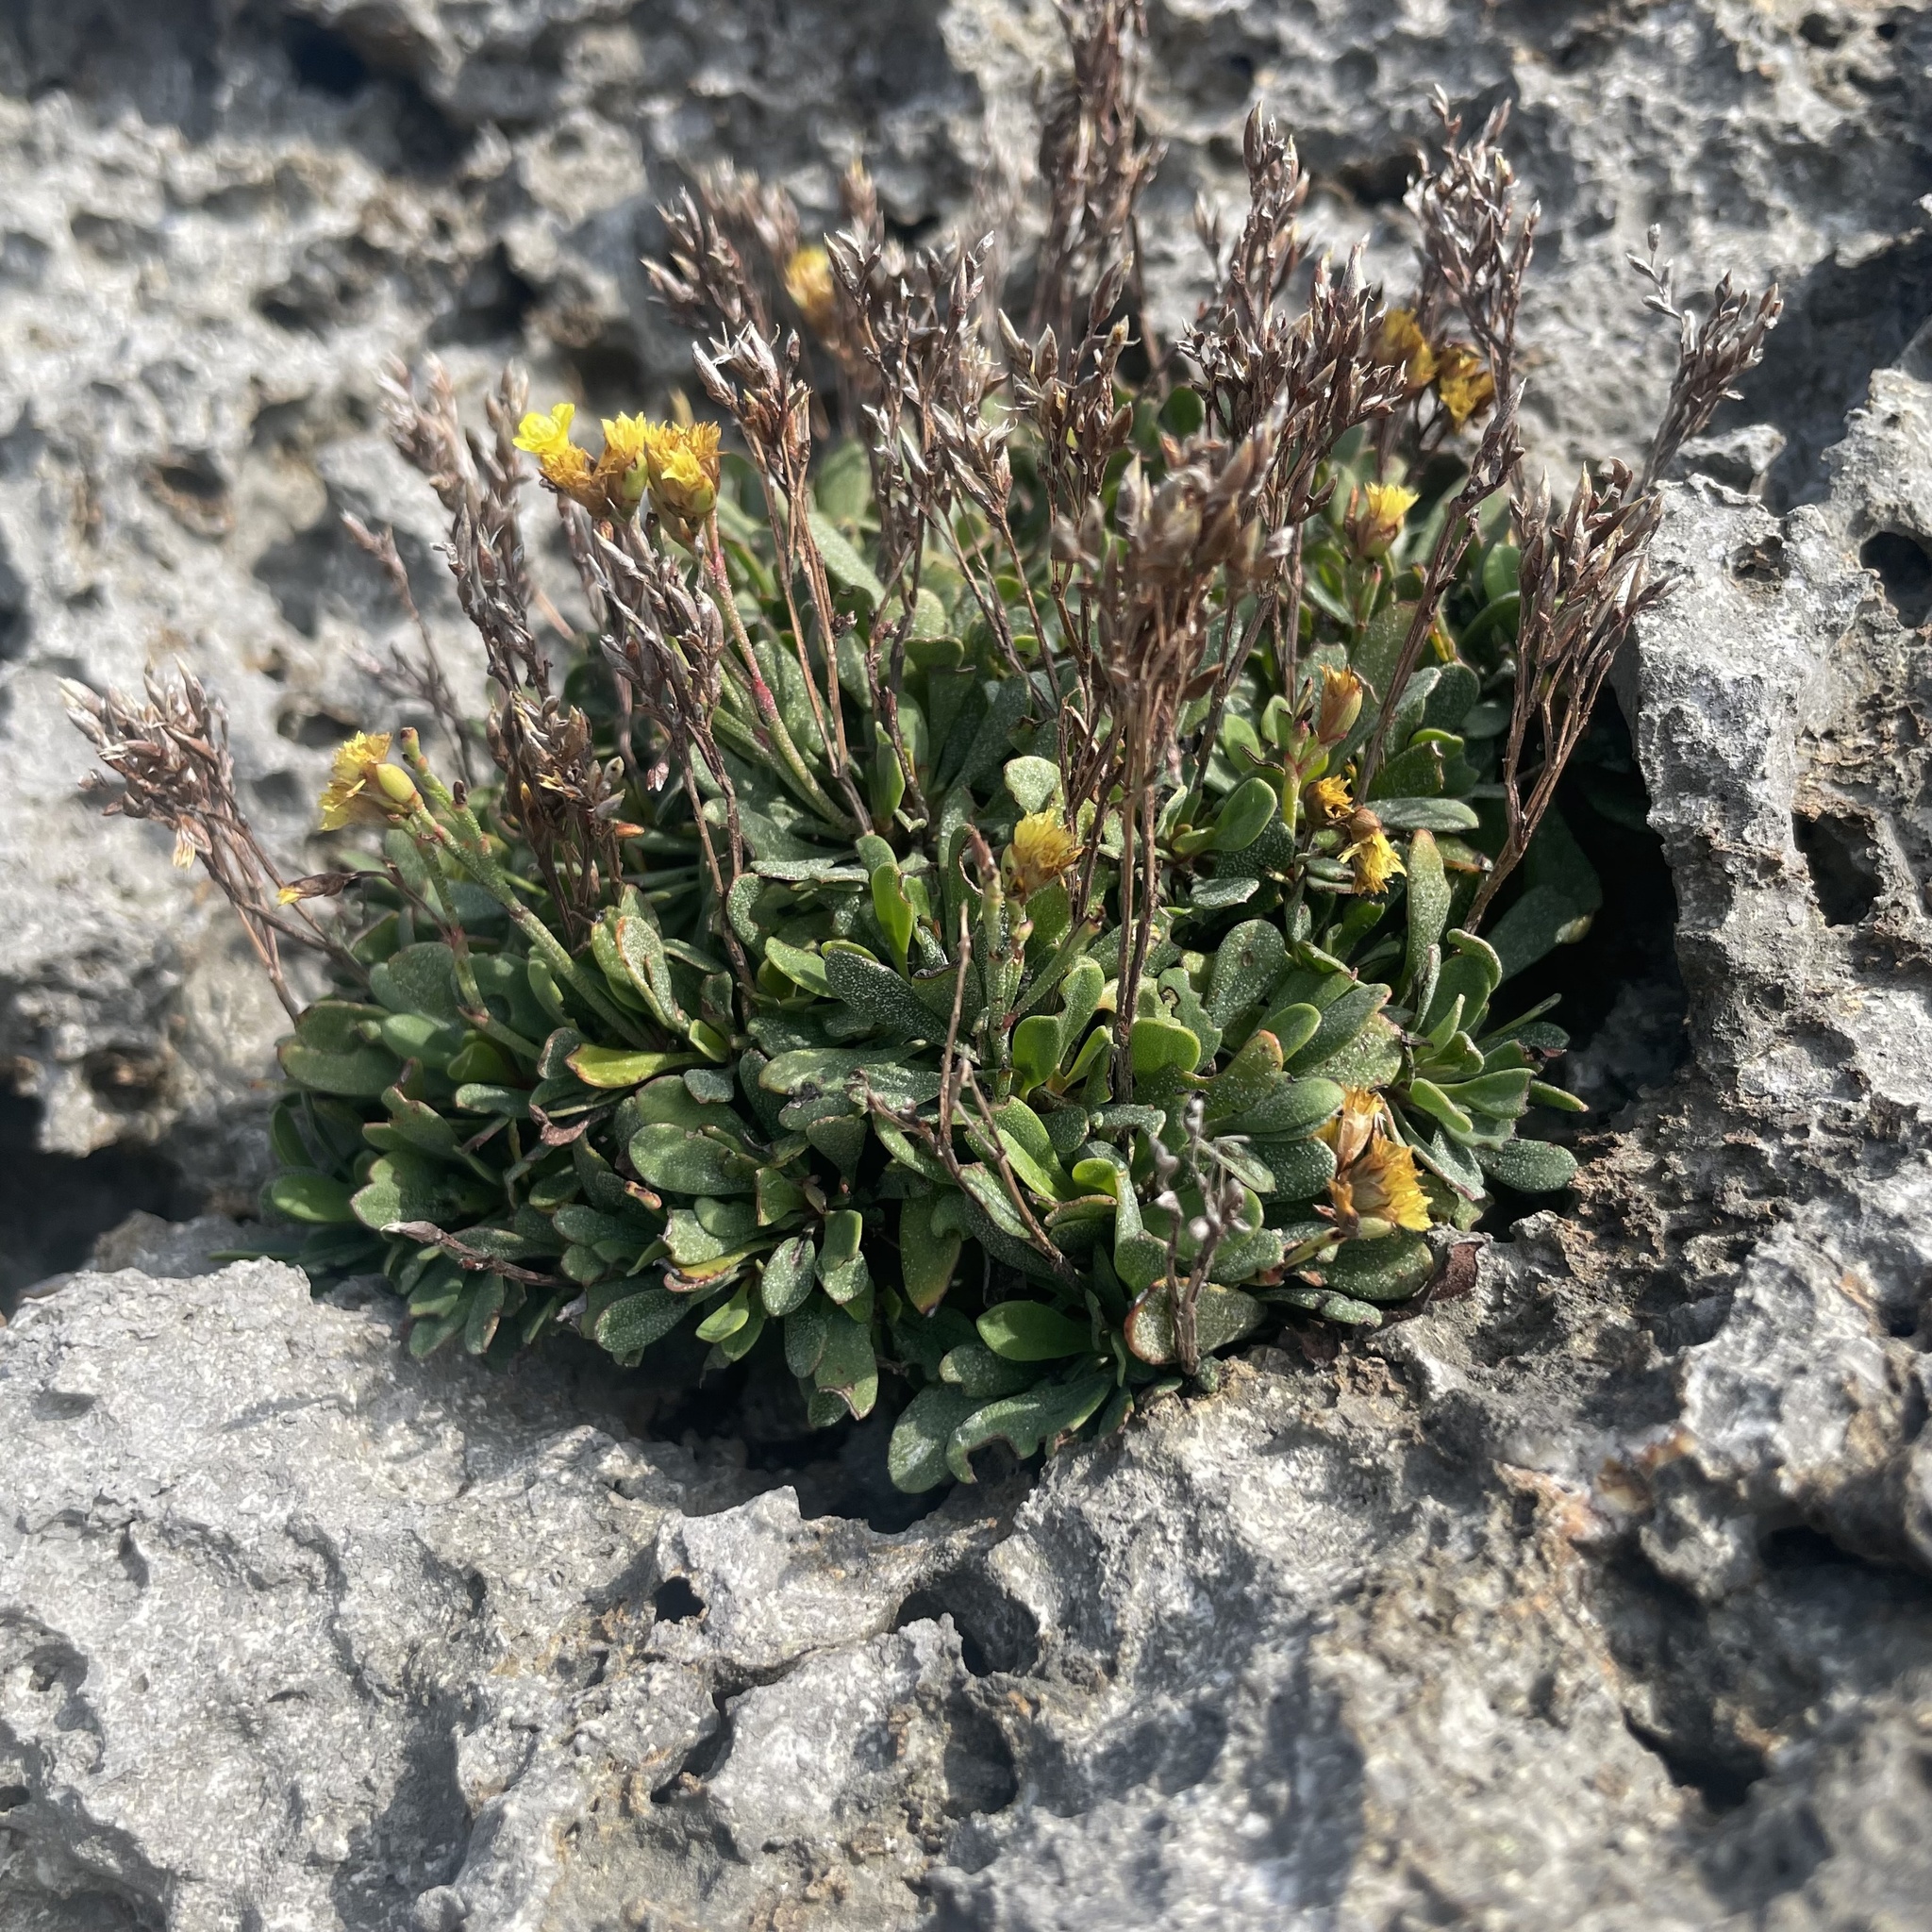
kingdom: Plantae
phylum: Tracheophyta
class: Magnoliopsida
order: Caryophyllales
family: Plumbaginaceae
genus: Limonium
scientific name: Limonium wrightii
